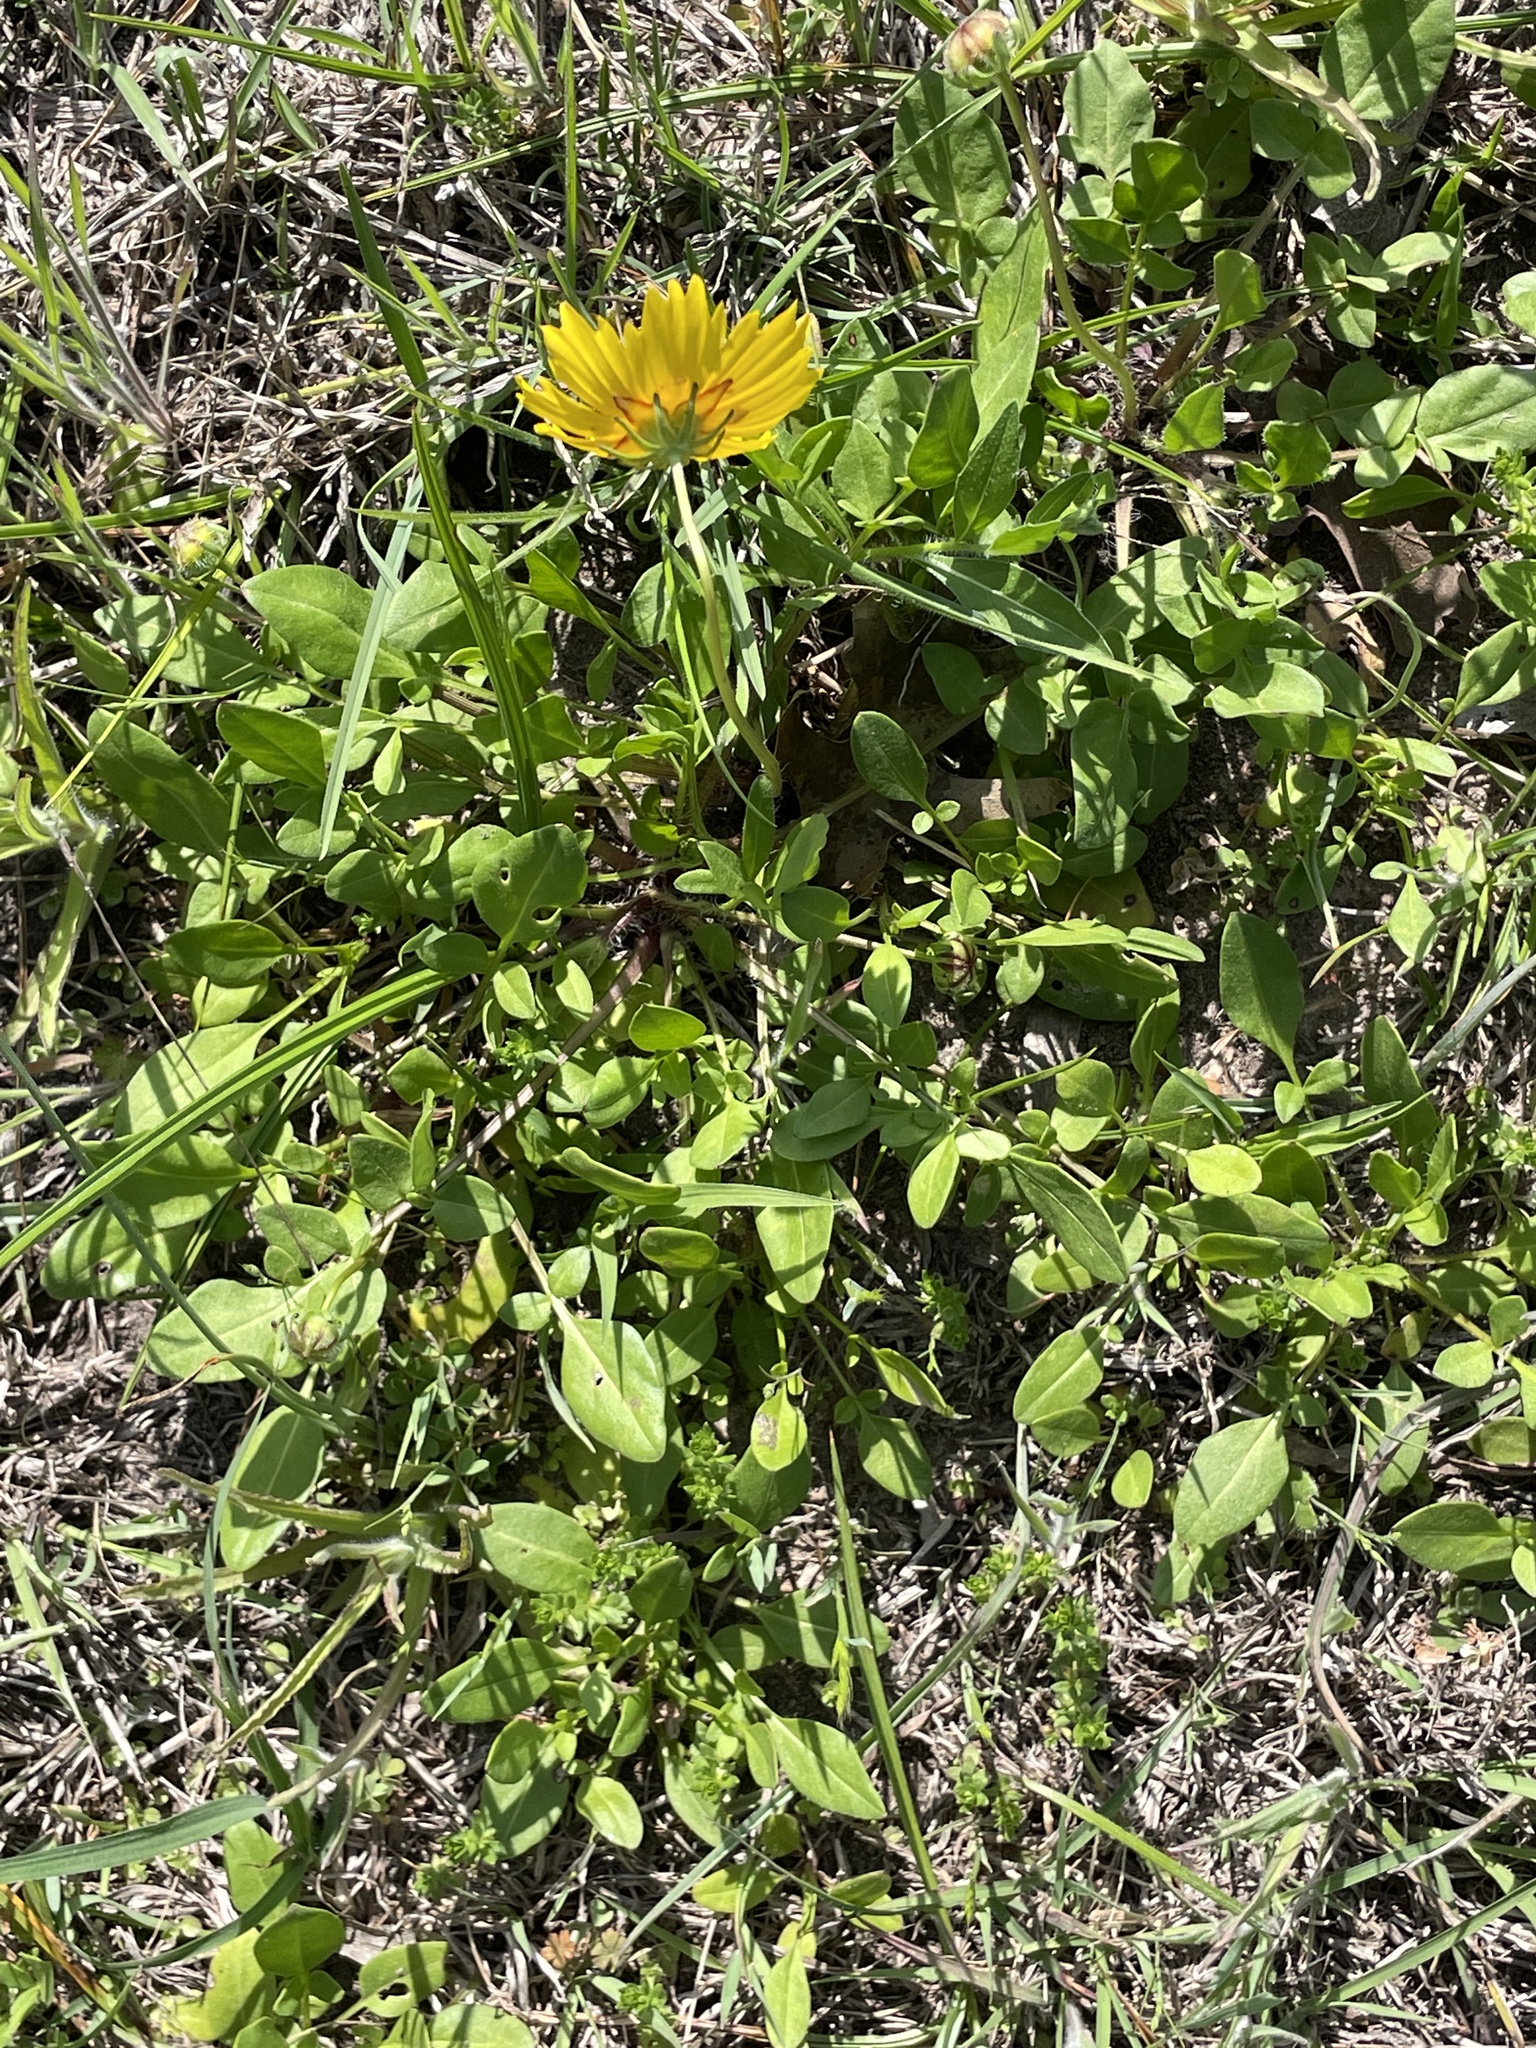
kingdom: Plantae
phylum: Tracheophyta
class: Magnoliopsida
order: Asterales
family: Asteraceae
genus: Coreopsis
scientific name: Coreopsis nuecensis
